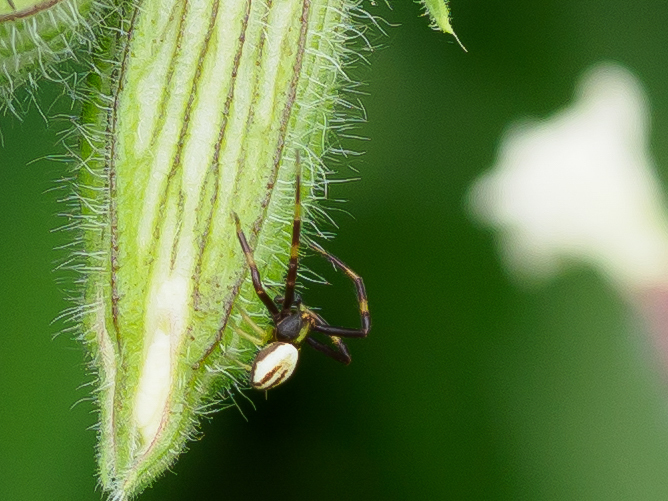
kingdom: Animalia
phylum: Arthropoda
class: Arachnida
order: Araneae
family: Thomisidae
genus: Misumena
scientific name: Misumena vatia
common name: Goldenrod crab spider
